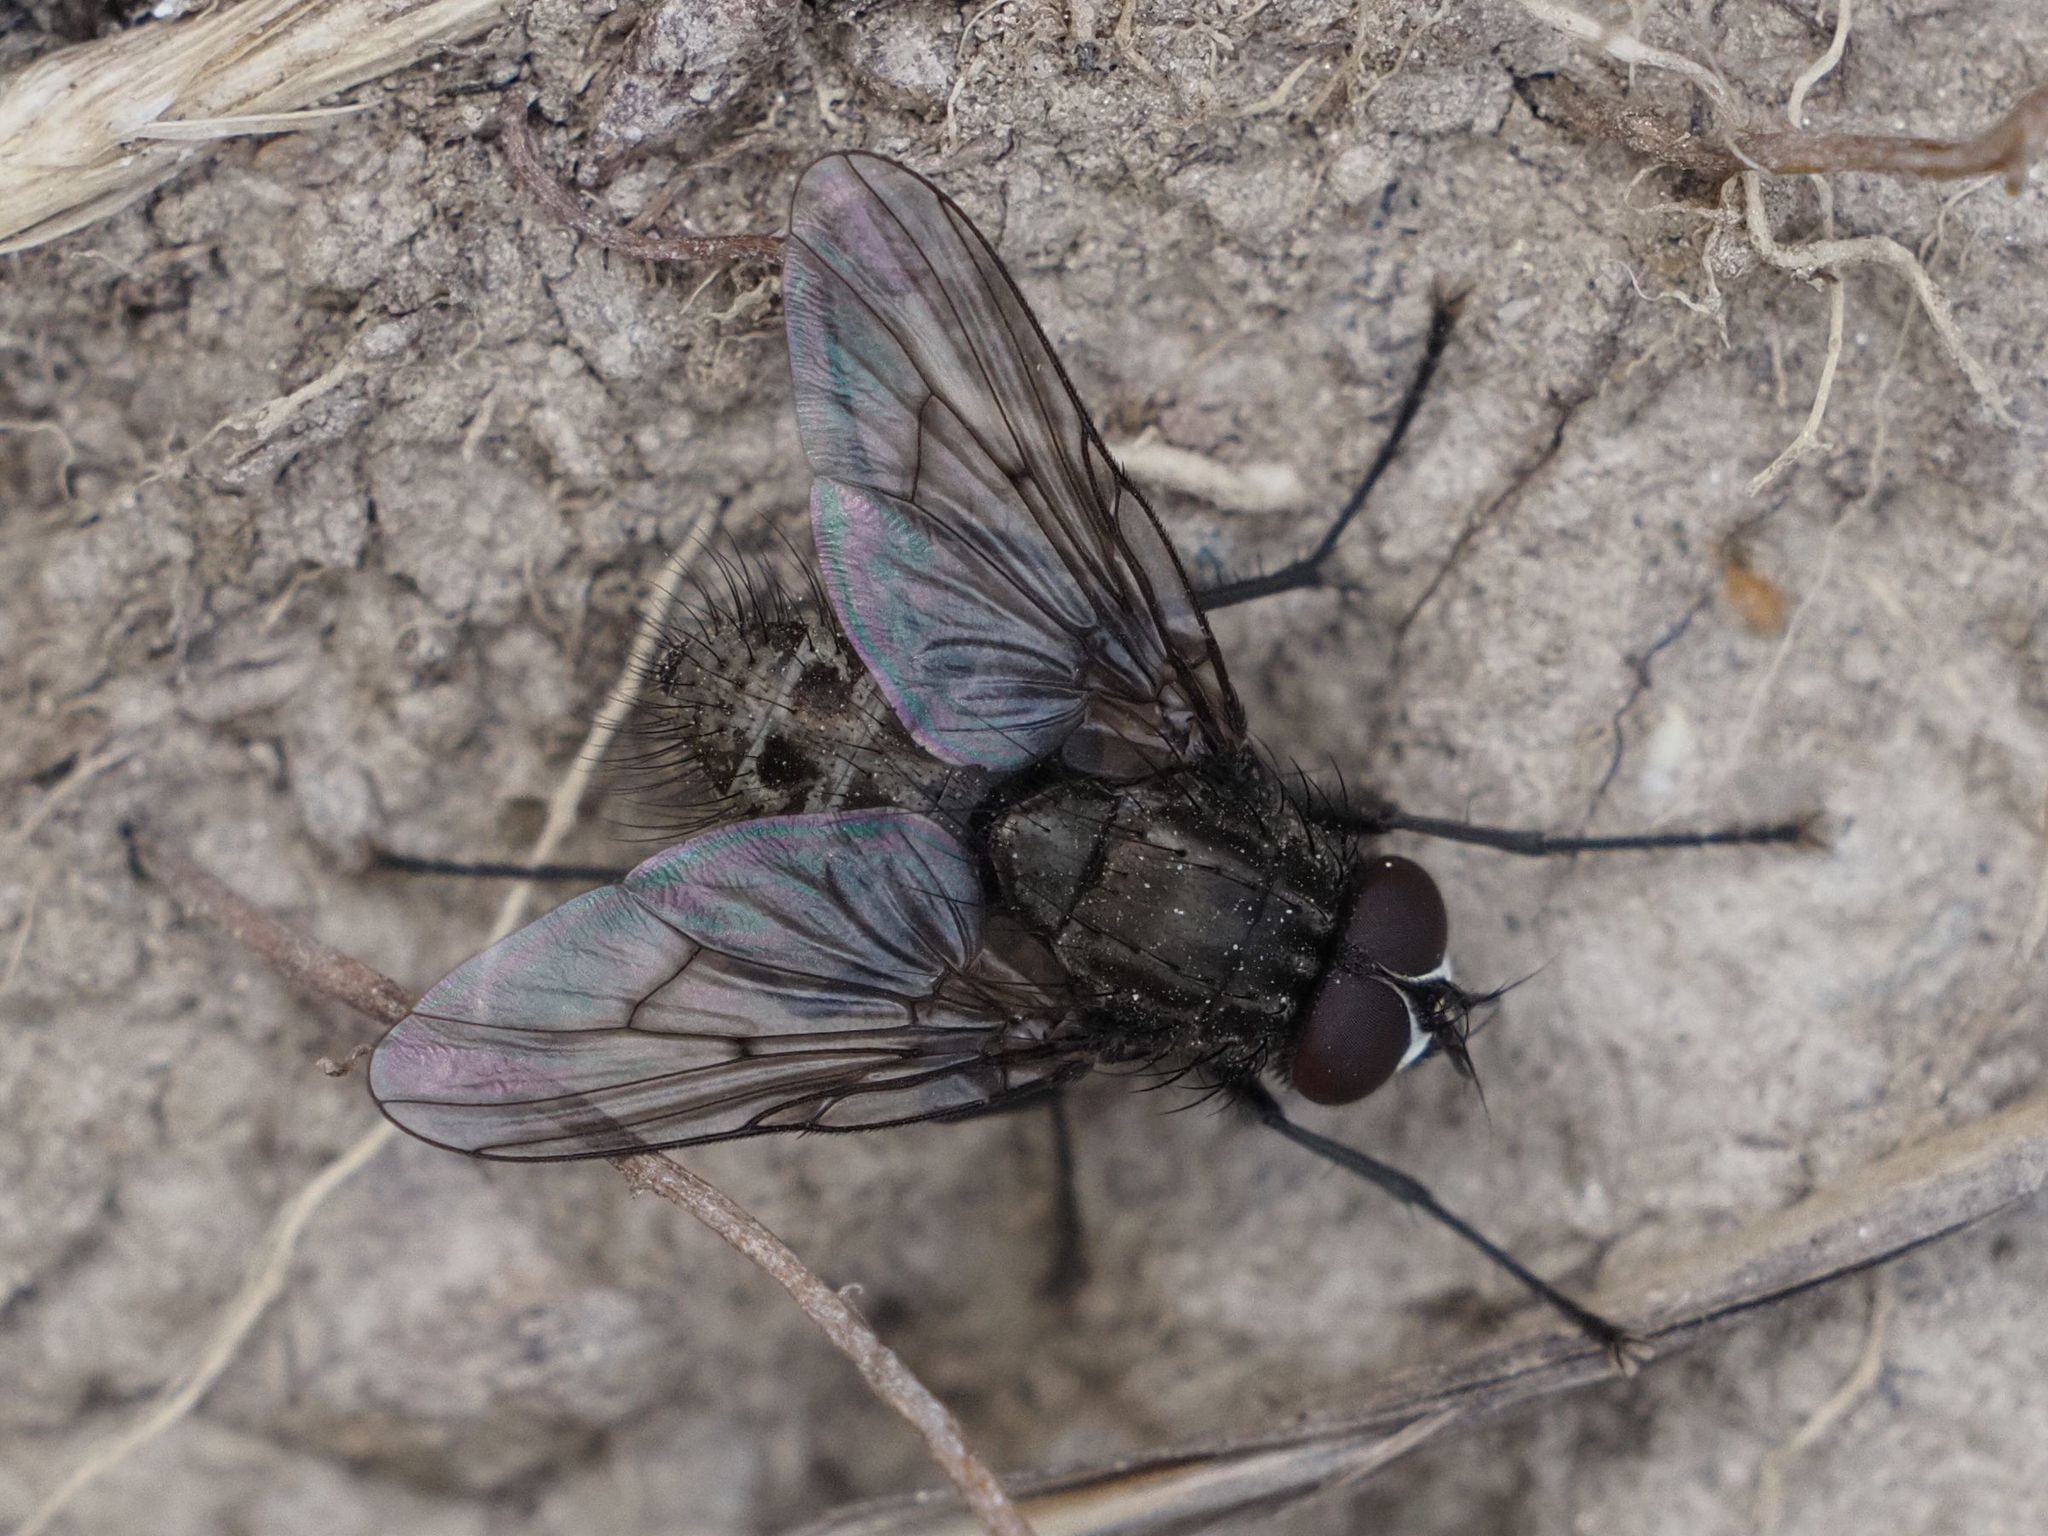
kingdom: Animalia
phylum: Arthropoda
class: Insecta
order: Diptera
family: Muscidae
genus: Helina
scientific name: Helina evecta
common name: Muscid fly
